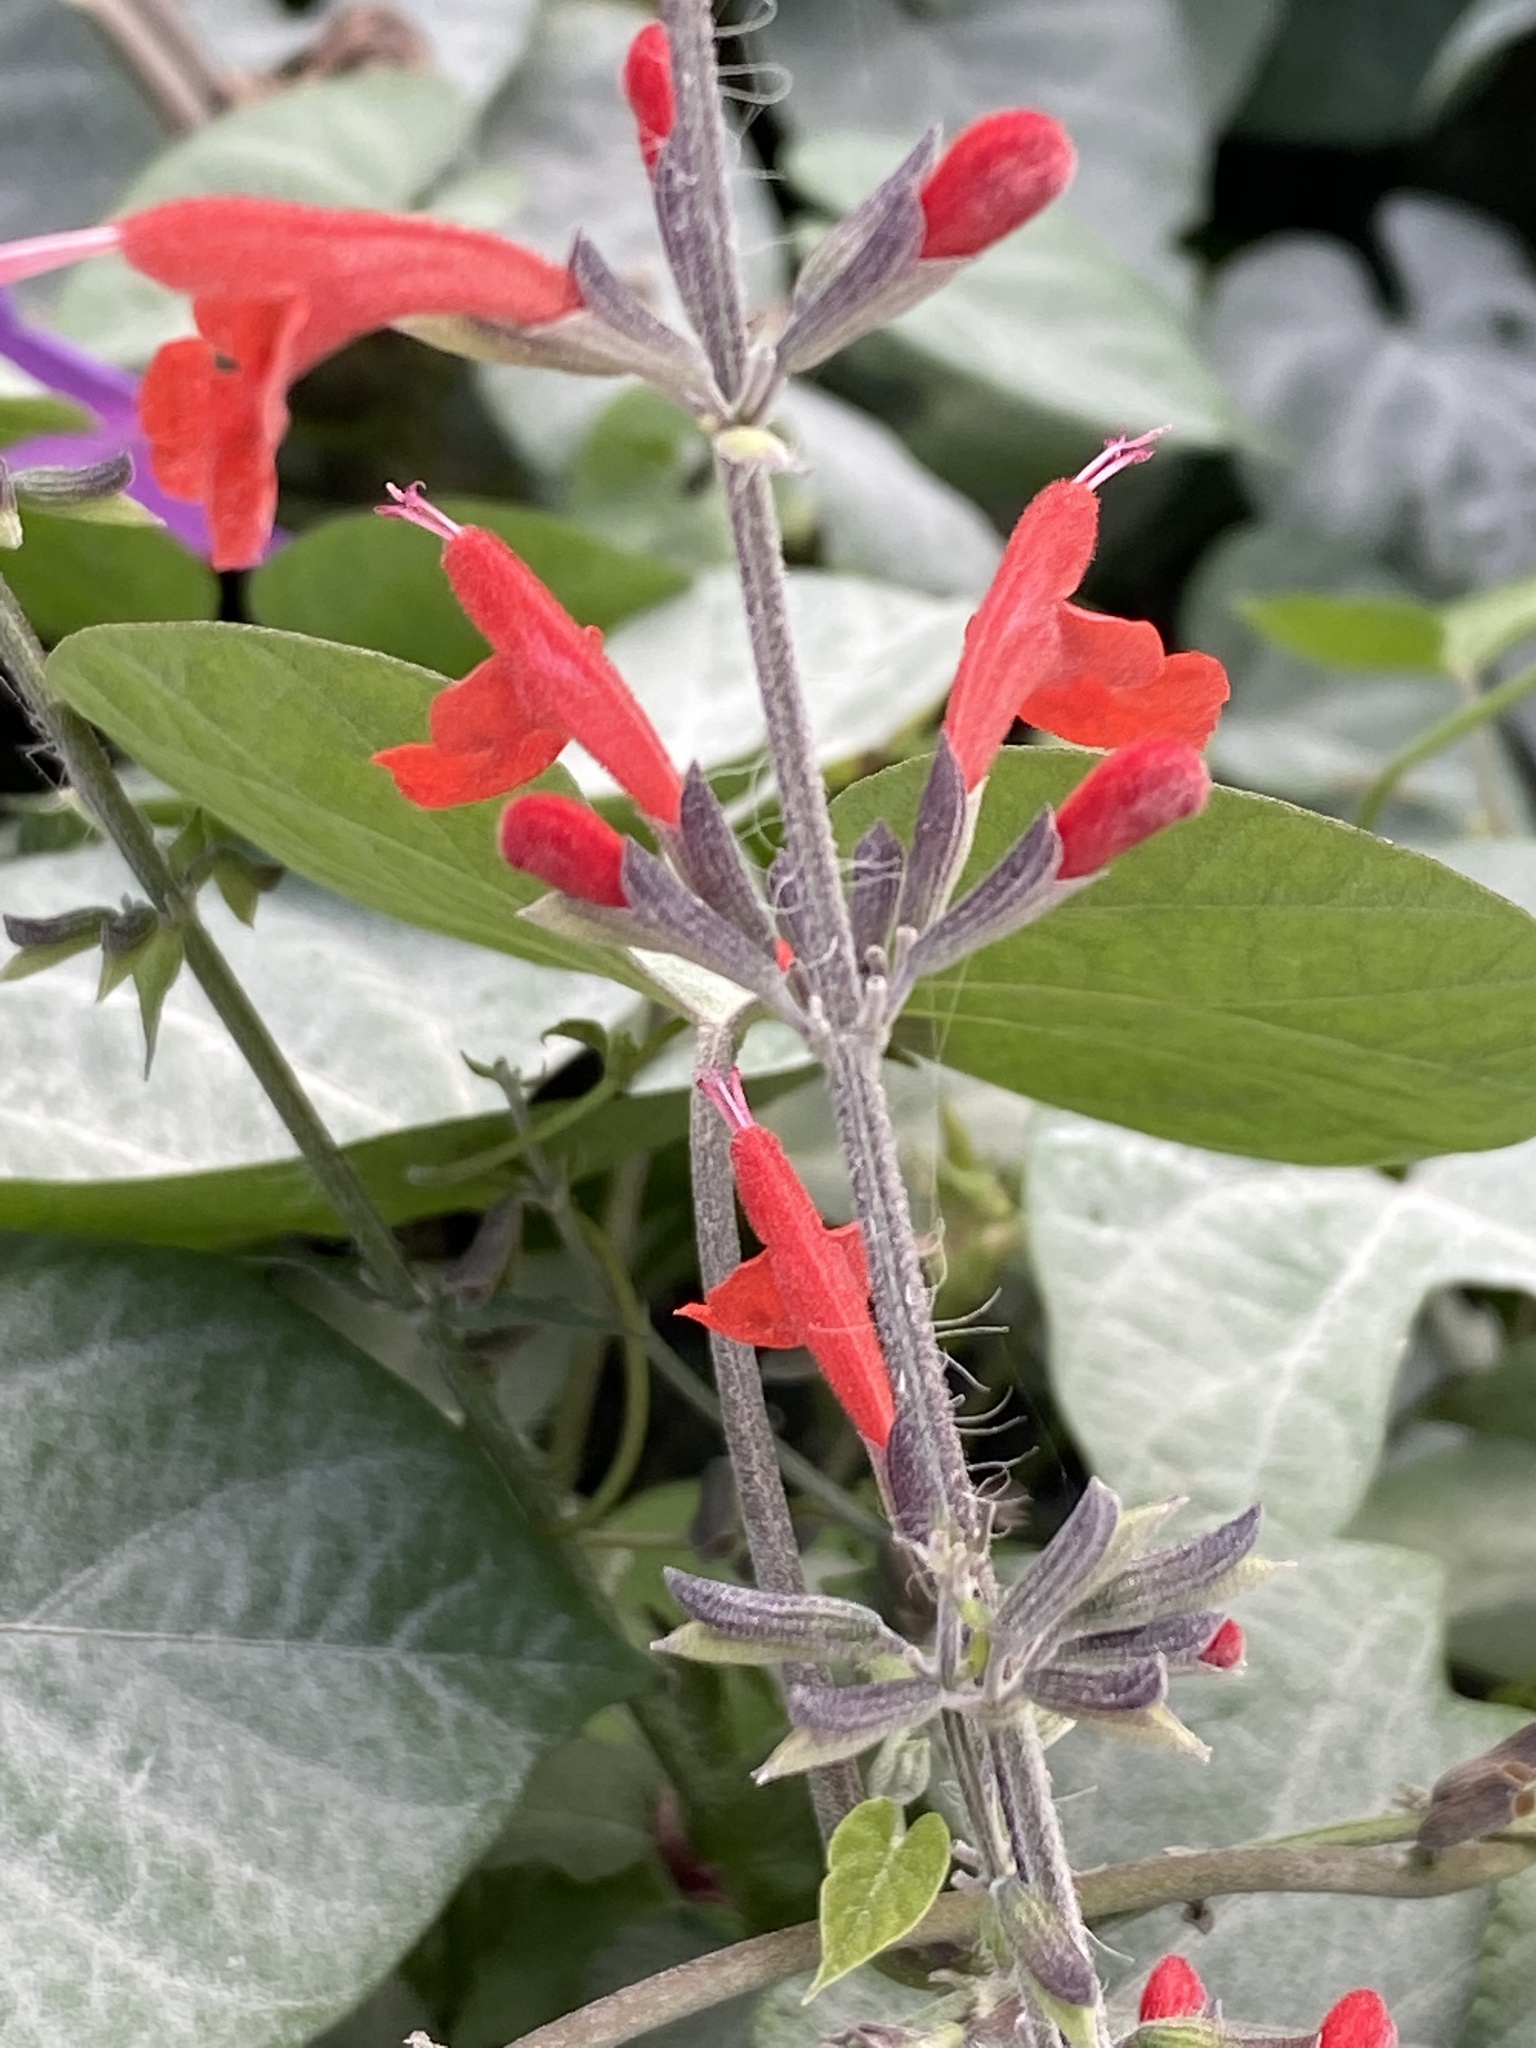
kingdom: Plantae
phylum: Tracheophyta
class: Magnoliopsida
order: Lamiales
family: Lamiaceae
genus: Salvia
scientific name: Salvia coccinea
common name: Blood sage
